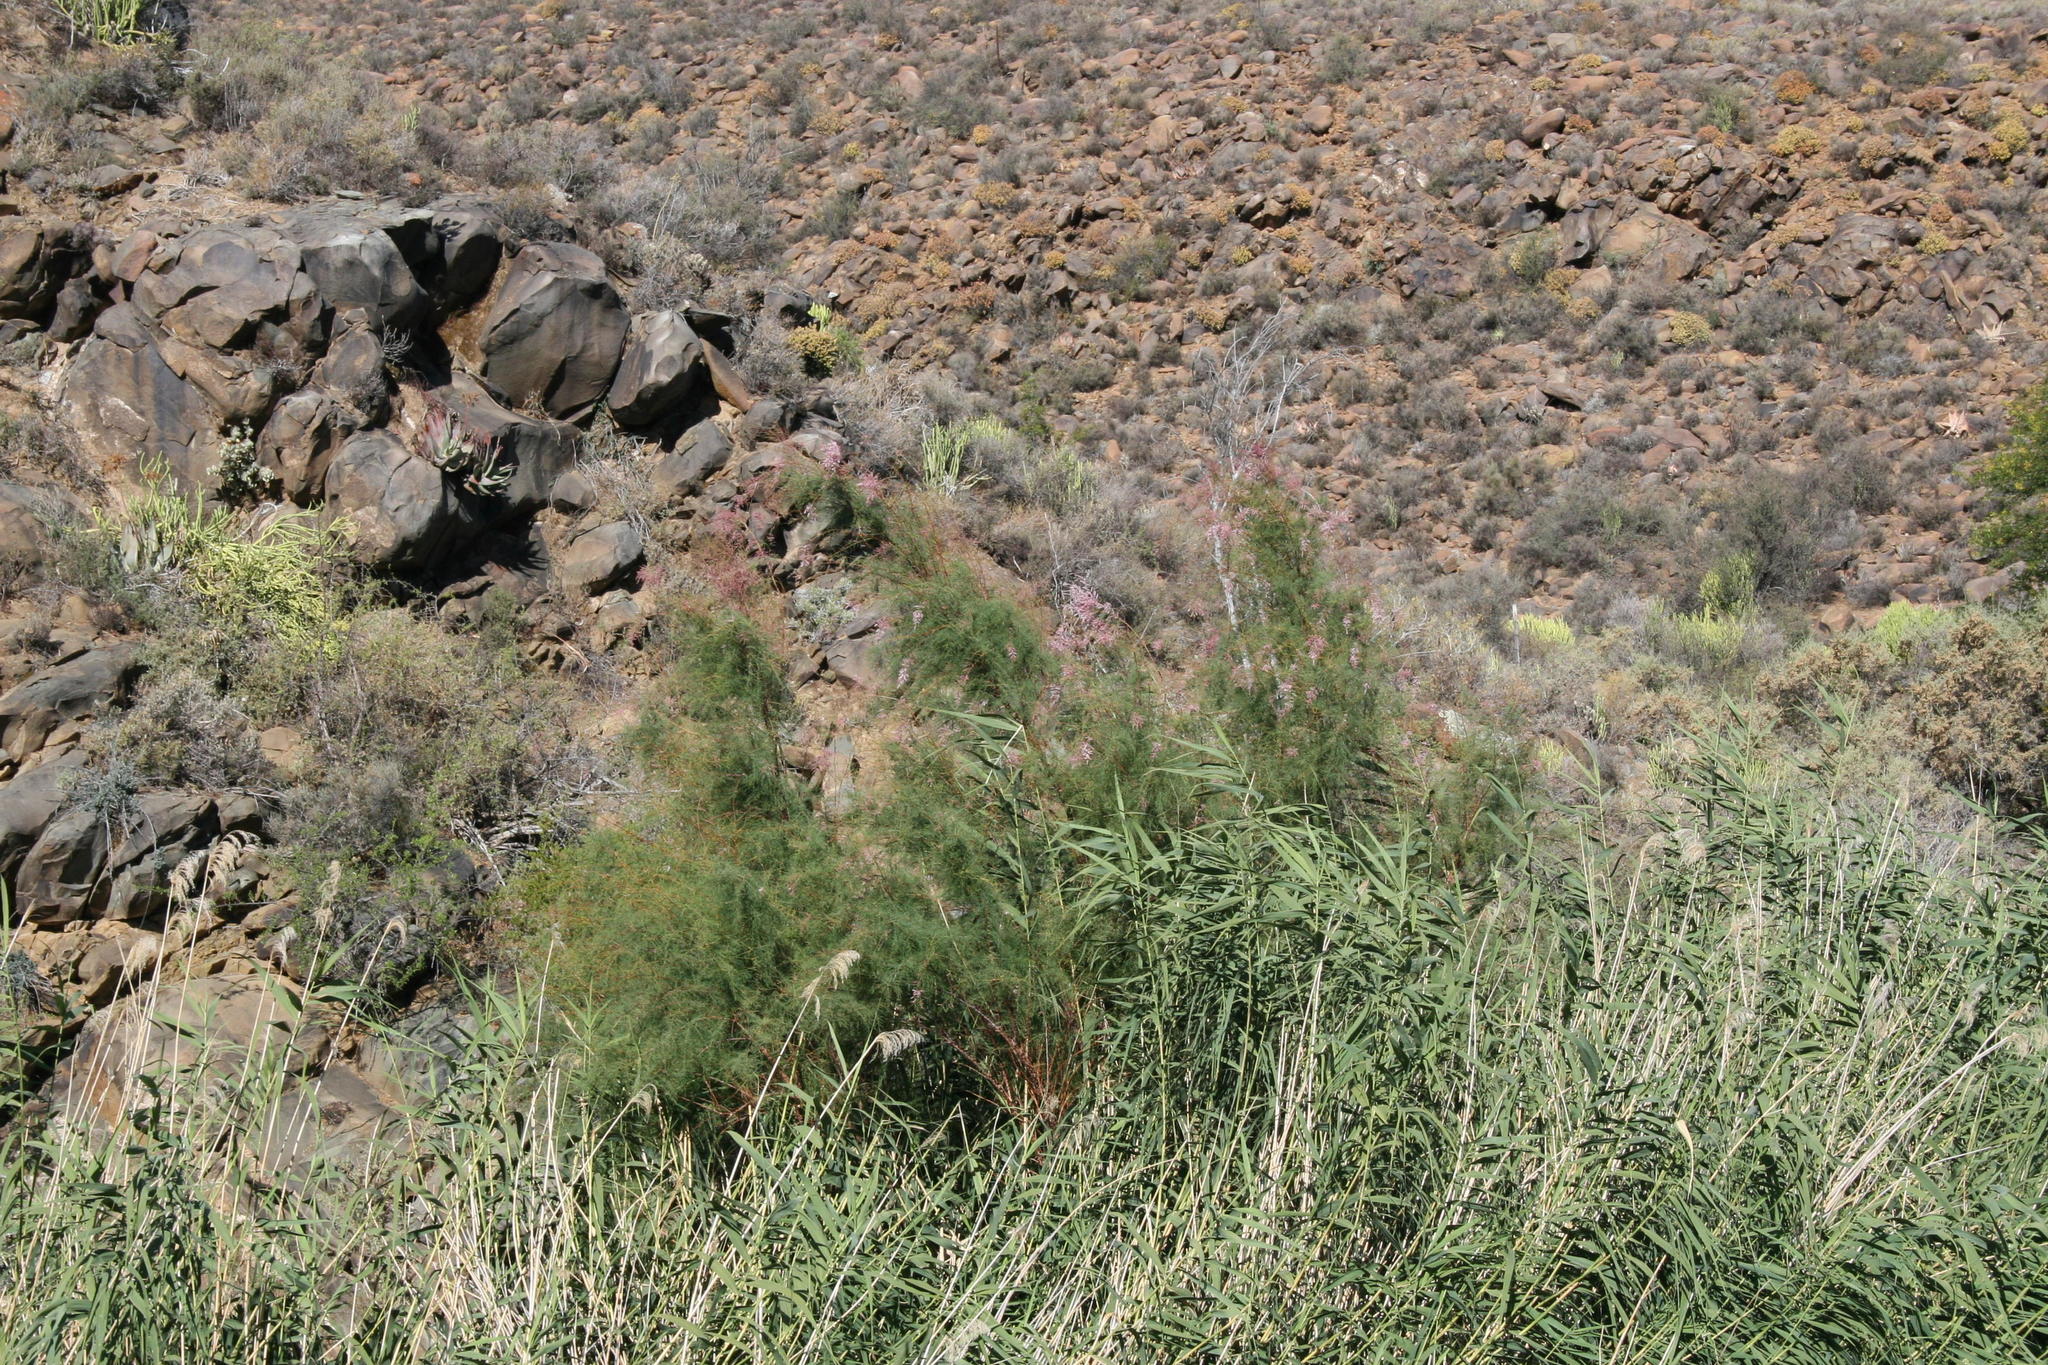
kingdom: Plantae
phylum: Tracheophyta
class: Magnoliopsida
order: Caryophyllales
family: Tamaricaceae
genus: Tamarix
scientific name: Tamarix ramosissima
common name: Pink tamarisk
